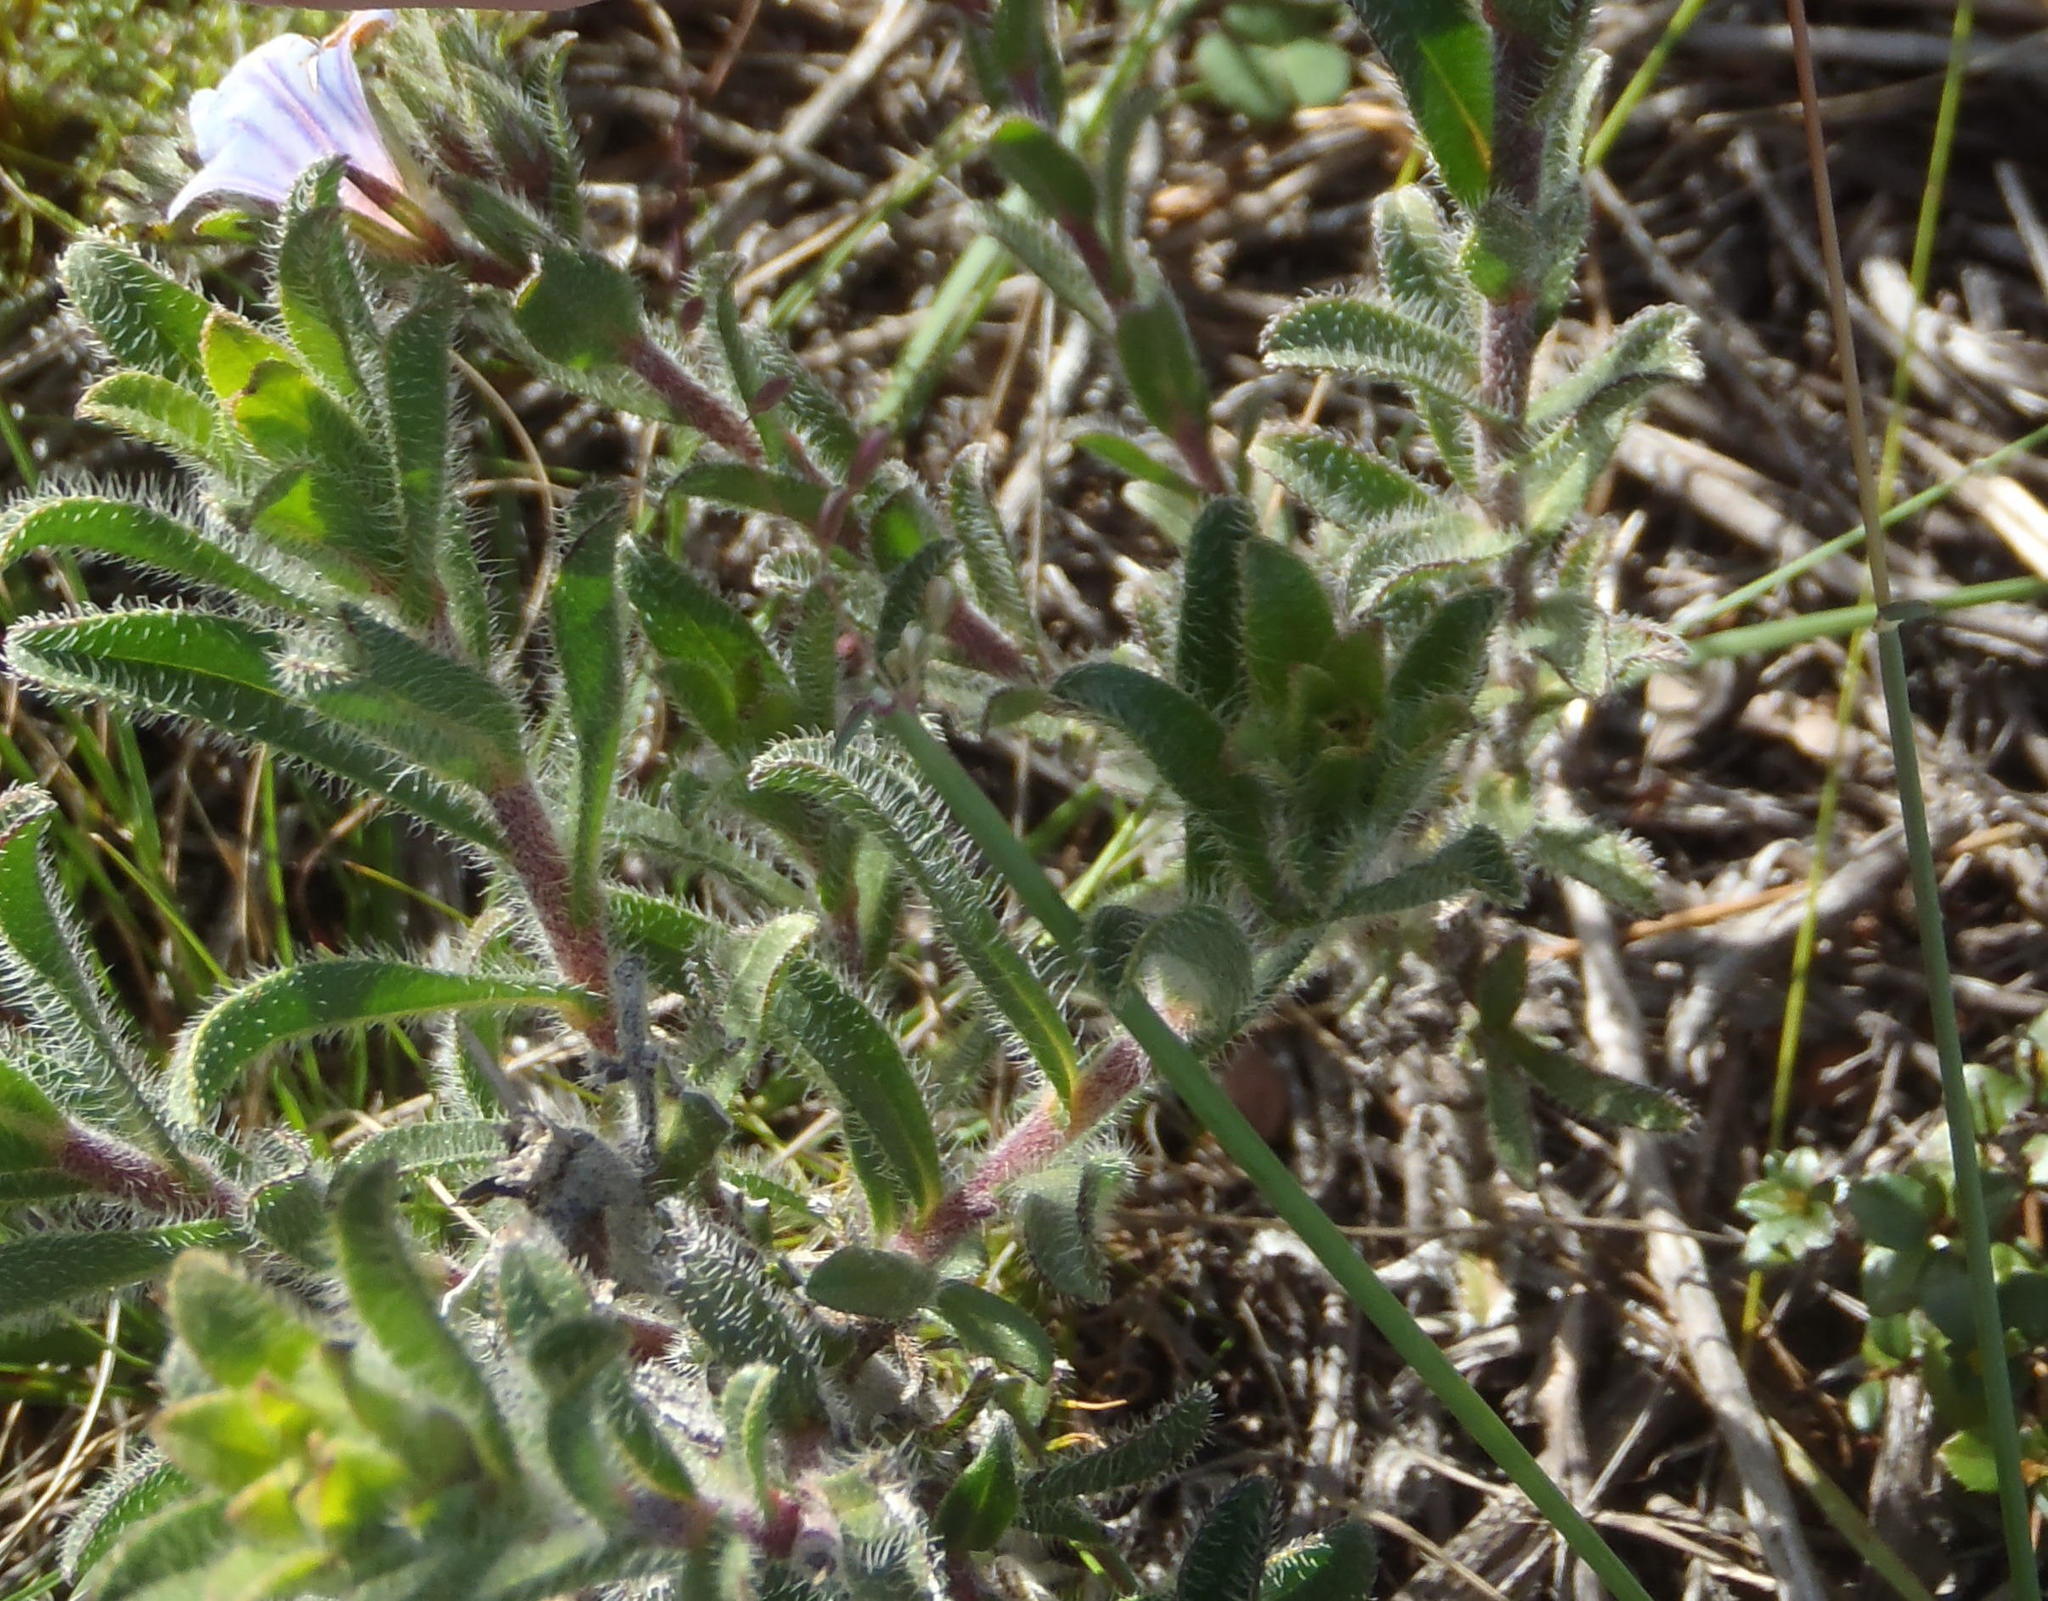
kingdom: Plantae
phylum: Tracheophyta
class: Magnoliopsida
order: Boraginales
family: Boraginaceae
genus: Lobostemon
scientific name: Lobostemon trigonus
